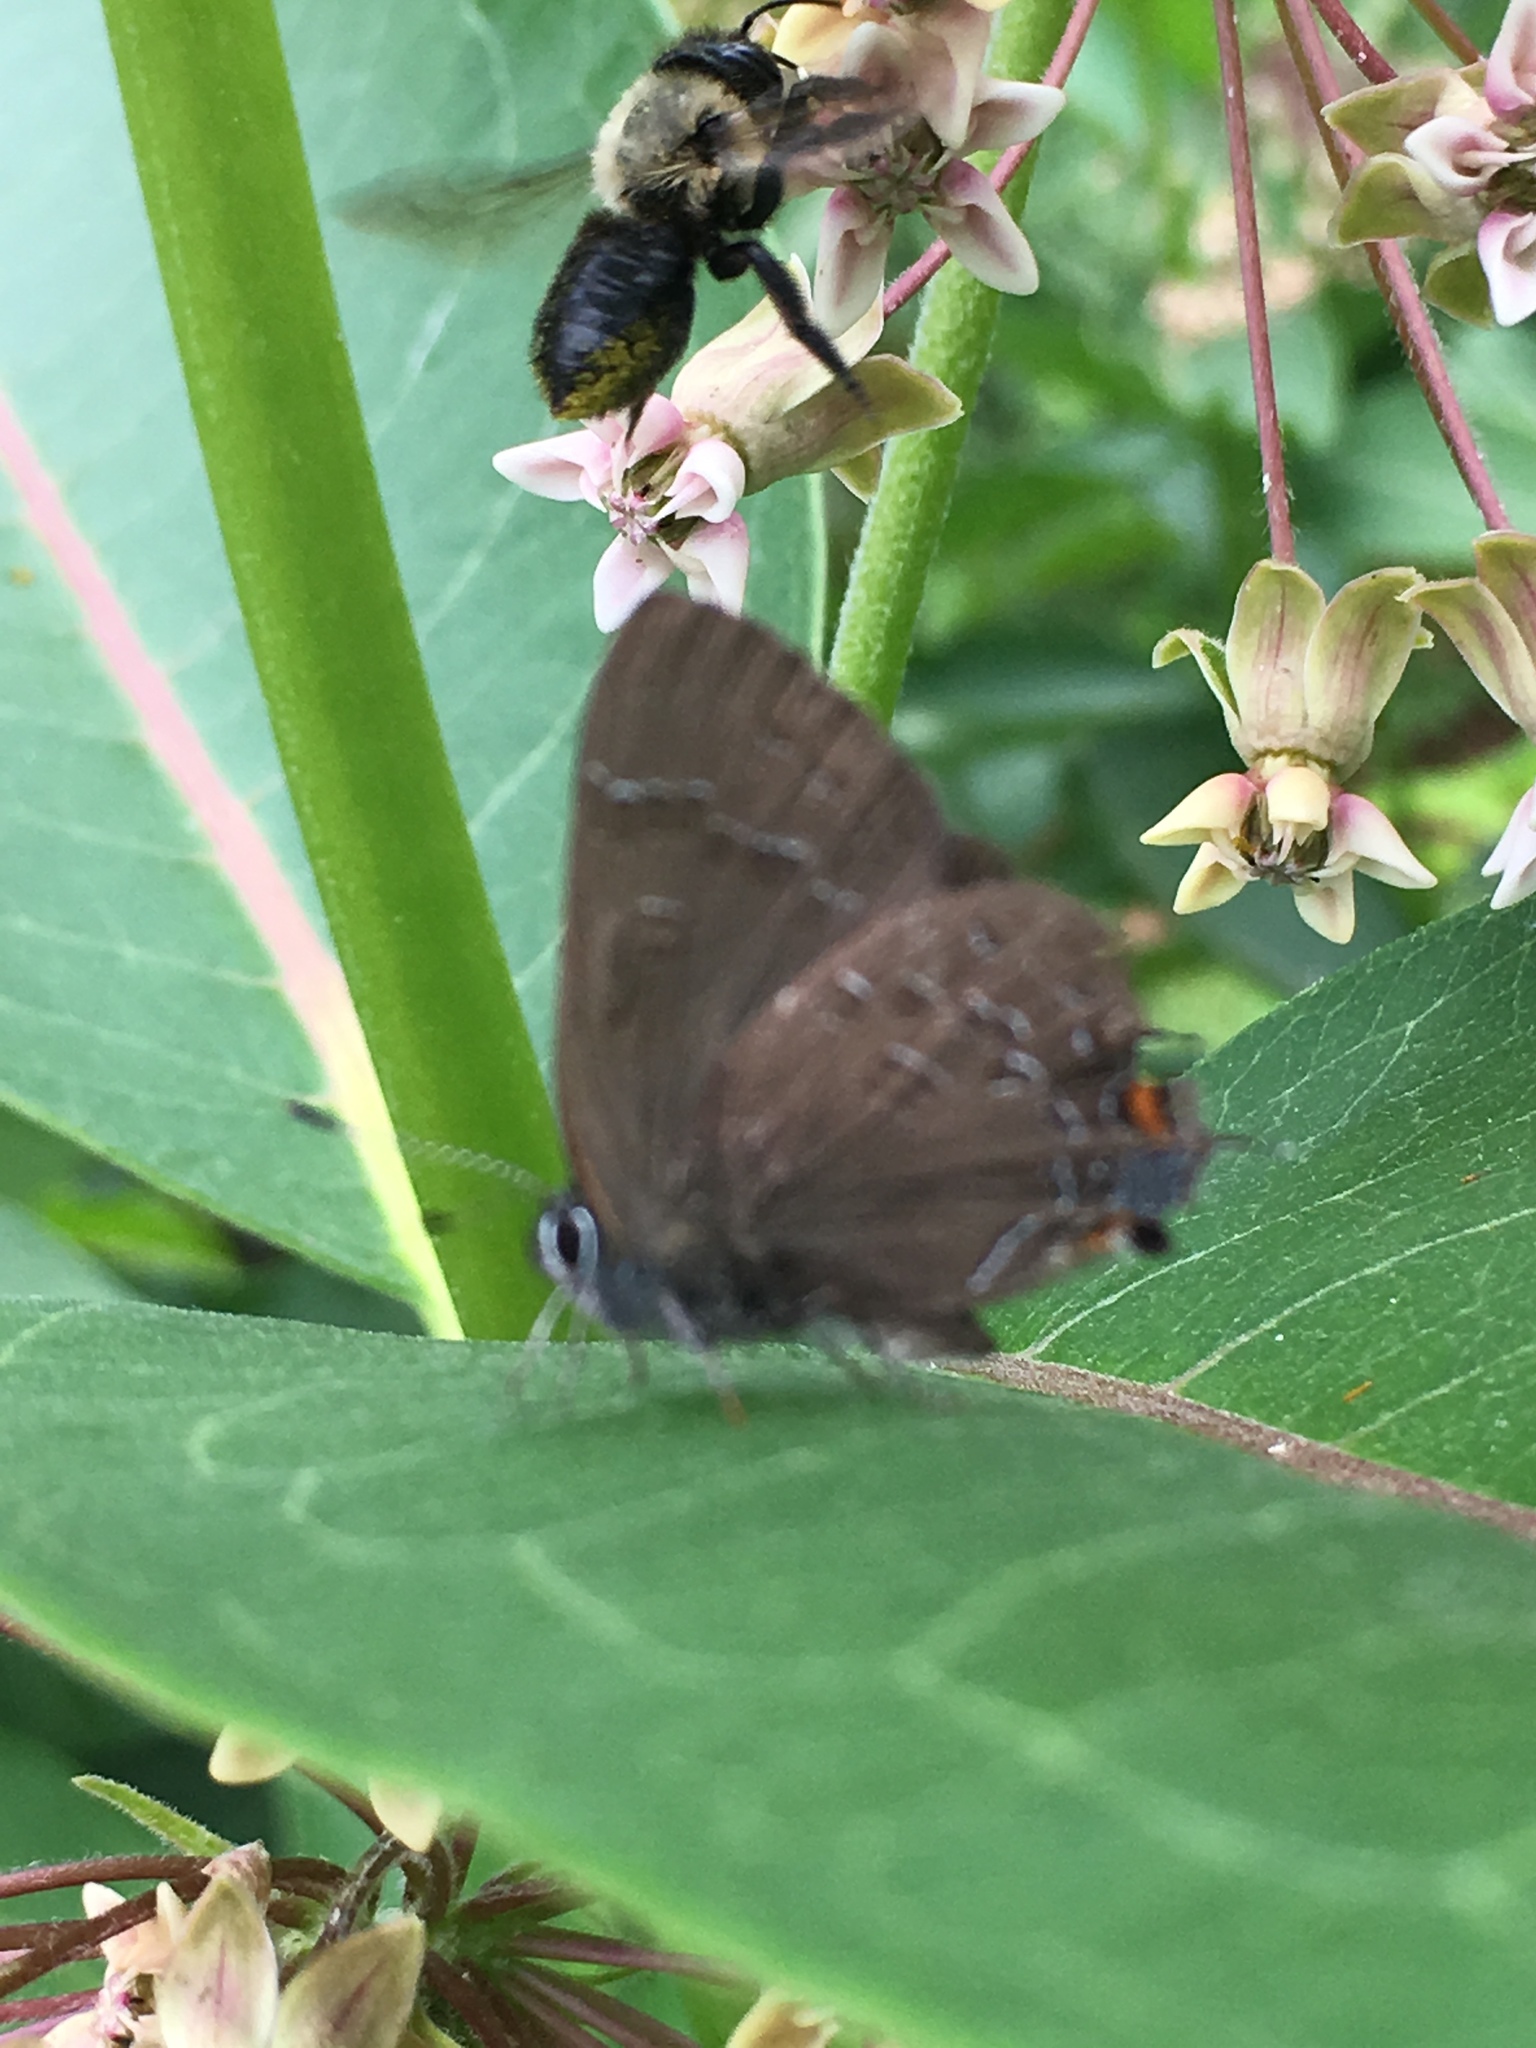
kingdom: Animalia
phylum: Arthropoda
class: Insecta
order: Lepidoptera
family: Lycaenidae
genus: Satyrium
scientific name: Satyrium calanus
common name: Banded hairstreak
